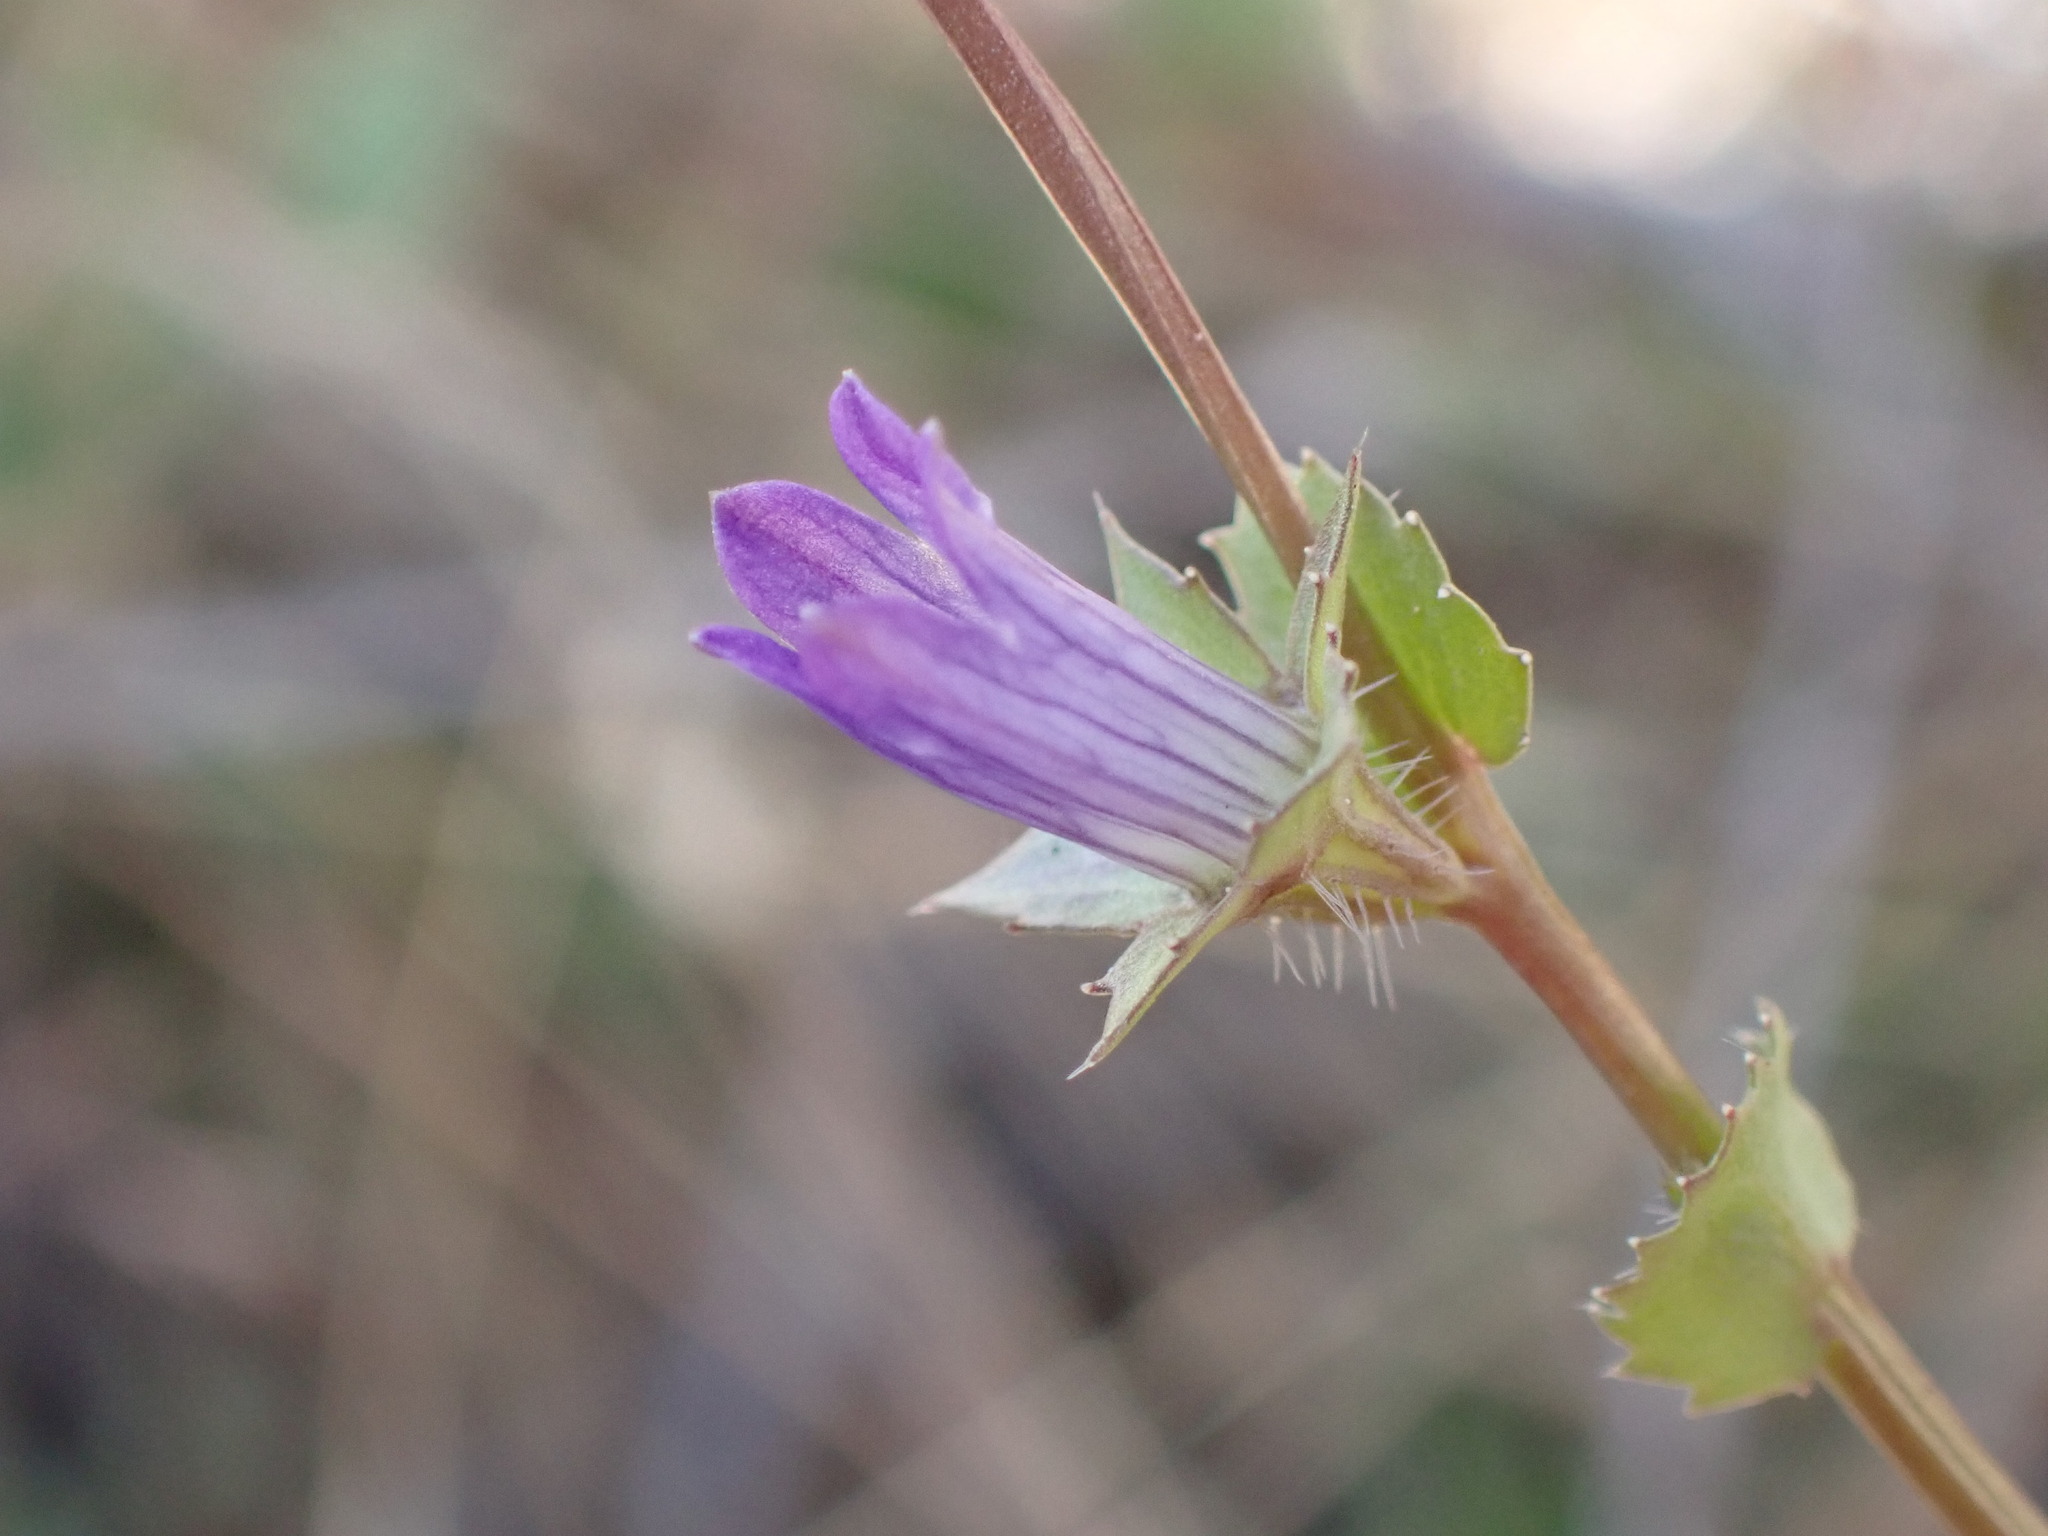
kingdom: Plantae
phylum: Tracheophyta
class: Magnoliopsida
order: Asterales
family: Campanulaceae
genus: Heterocodon
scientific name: Heterocodon rariflorum
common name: Rareflower heterocodon
